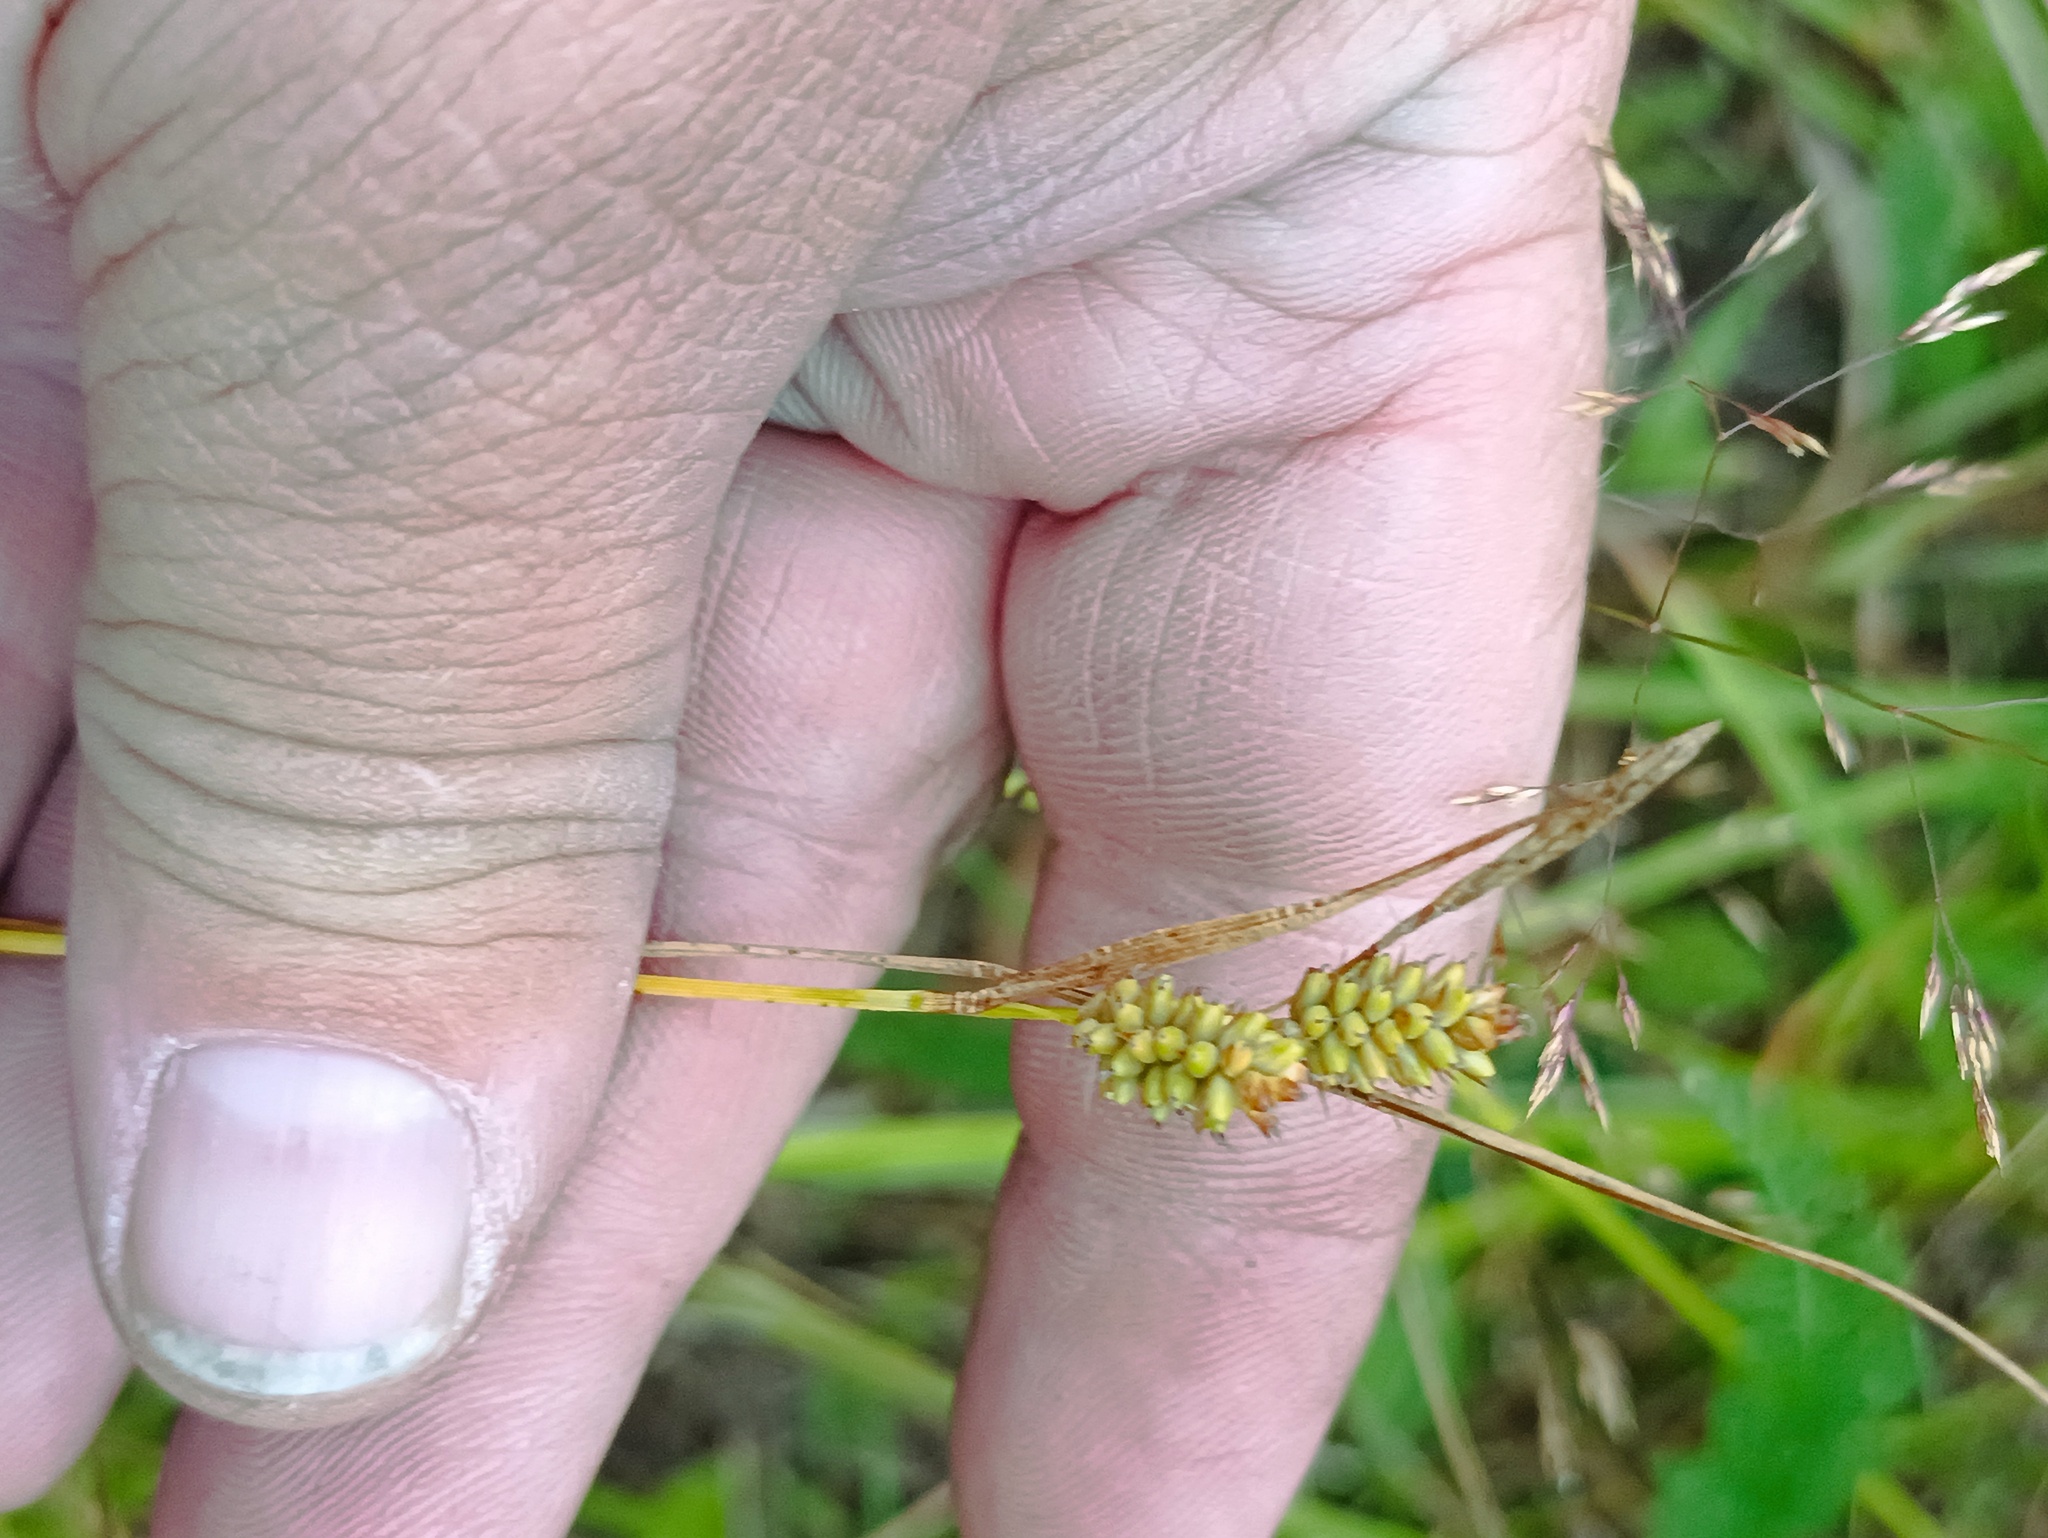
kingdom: Plantae
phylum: Tracheophyta
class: Liliopsida
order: Poales
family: Cyperaceae
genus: Carex
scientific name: Carex pallescens
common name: Pale sedge
